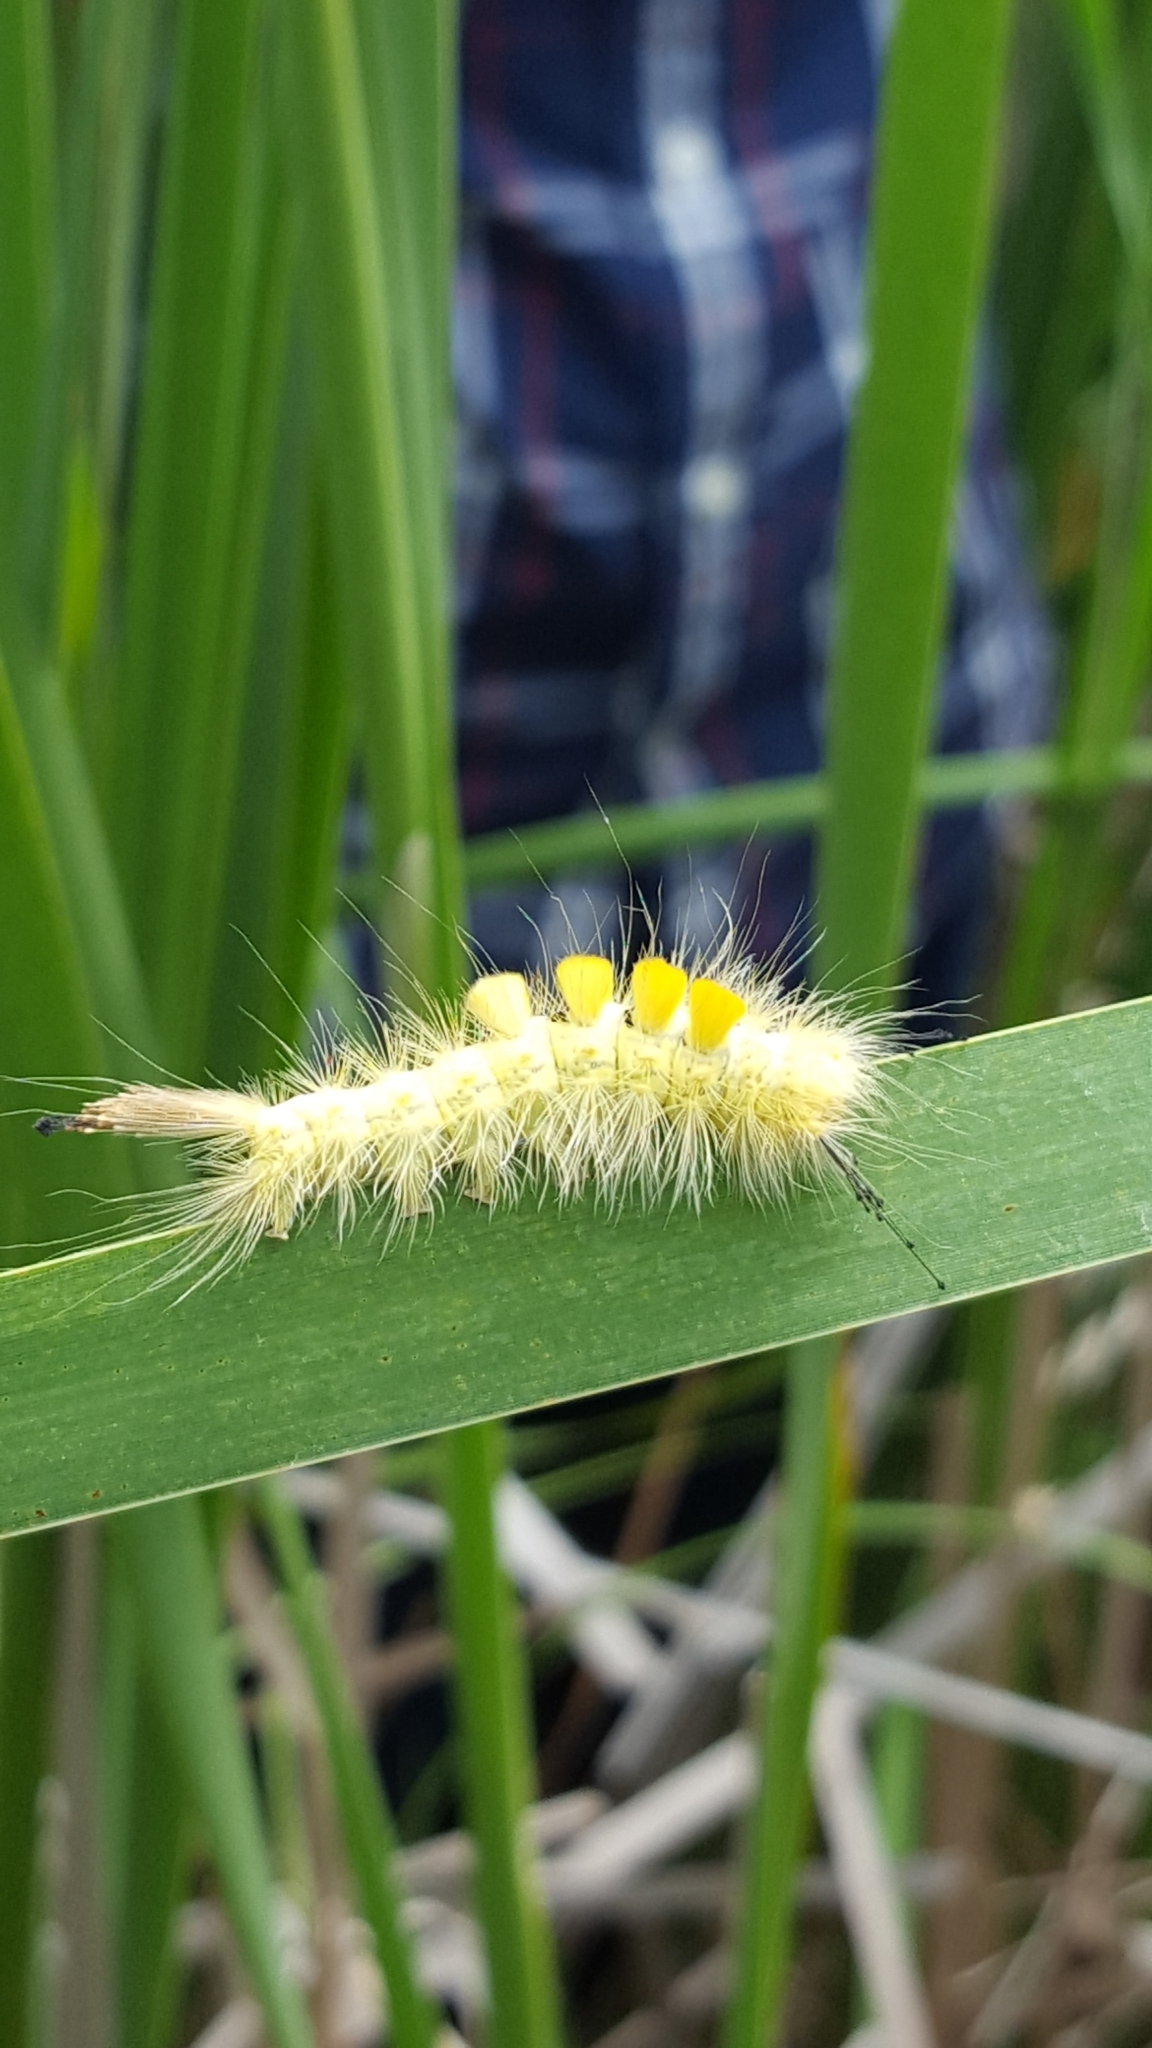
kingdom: Animalia
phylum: Arthropoda
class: Insecta
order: Lepidoptera
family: Erebidae
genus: Orgyia
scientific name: Orgyia definita
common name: Definite tussock moth
